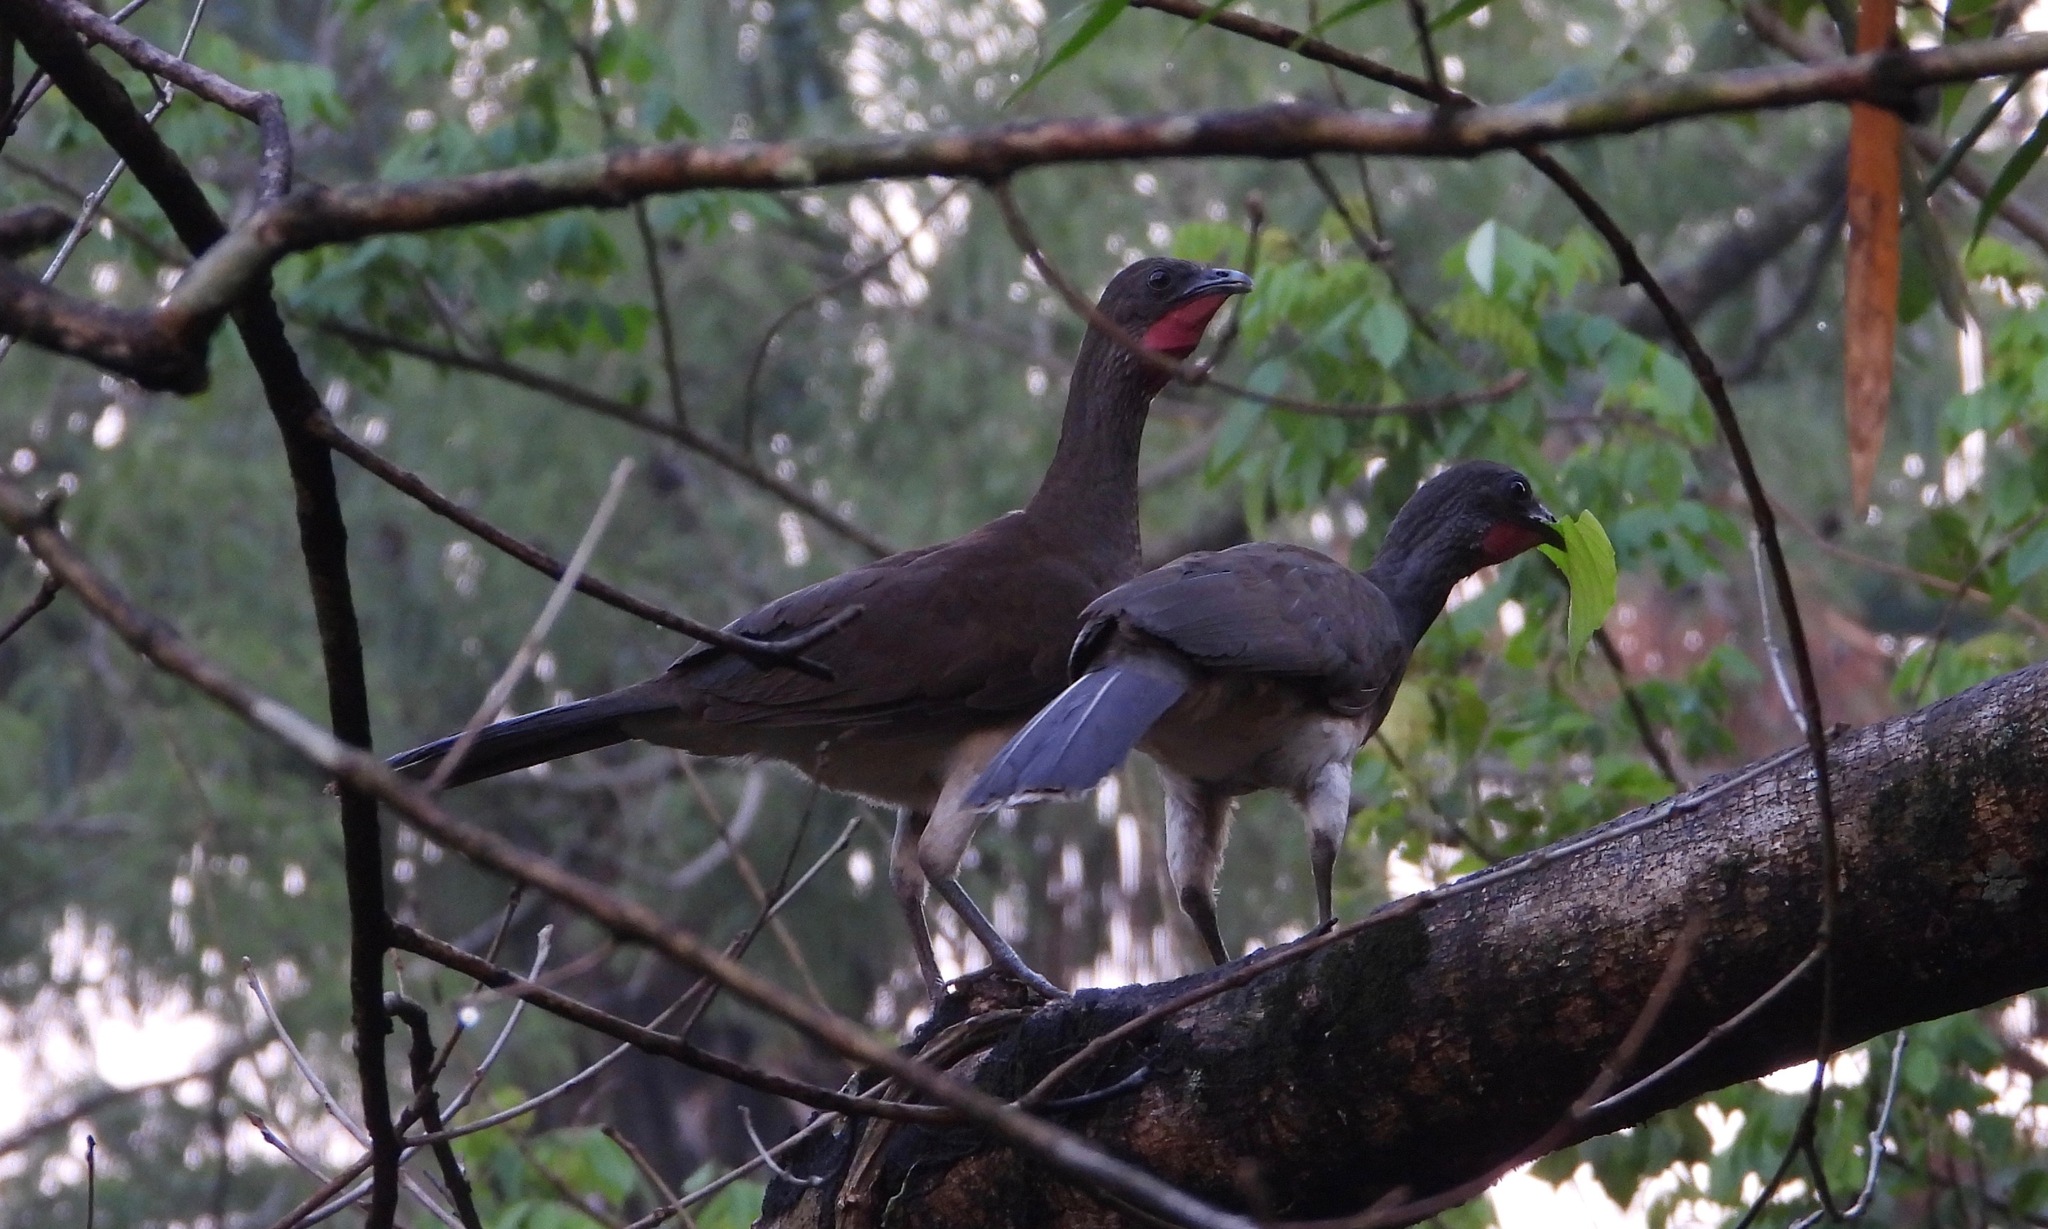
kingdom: Animalia
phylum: Chordata
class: Aves
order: Galliformes
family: Cracidae
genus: Ortalis
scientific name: Ortalis leucogastra
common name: White-bellied chachalaca
